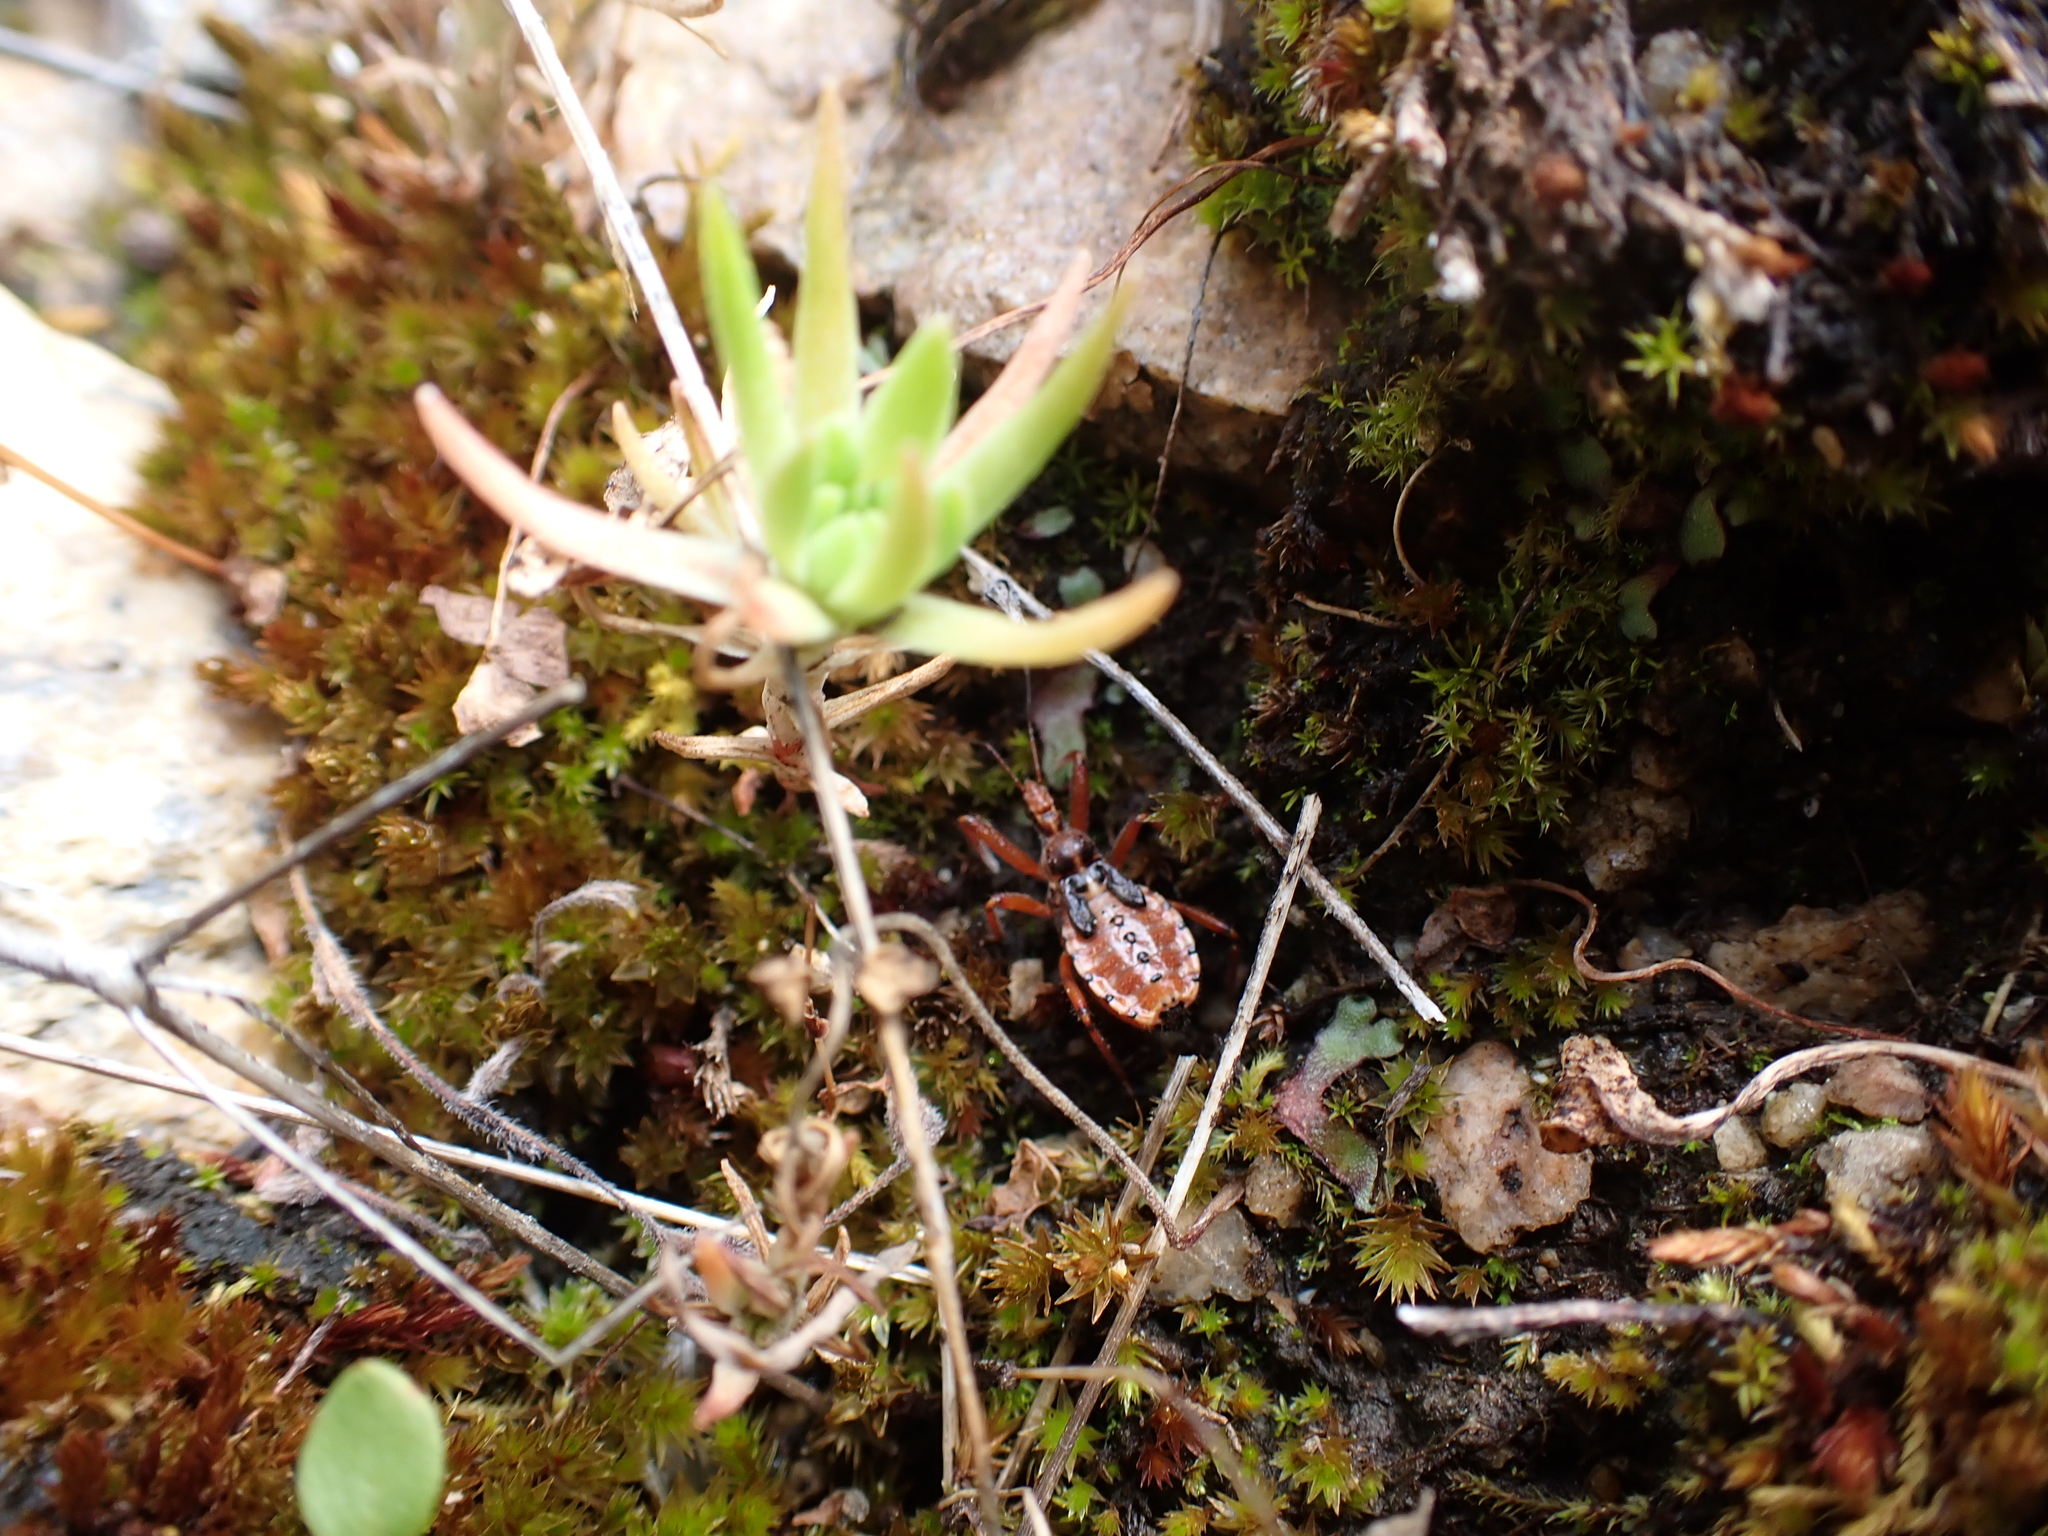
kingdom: Animalia
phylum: Arthropoda
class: Insecta
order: Hemiptera
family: Reduviidae
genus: Rhynocoris
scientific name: Rhynocoris ventralis
